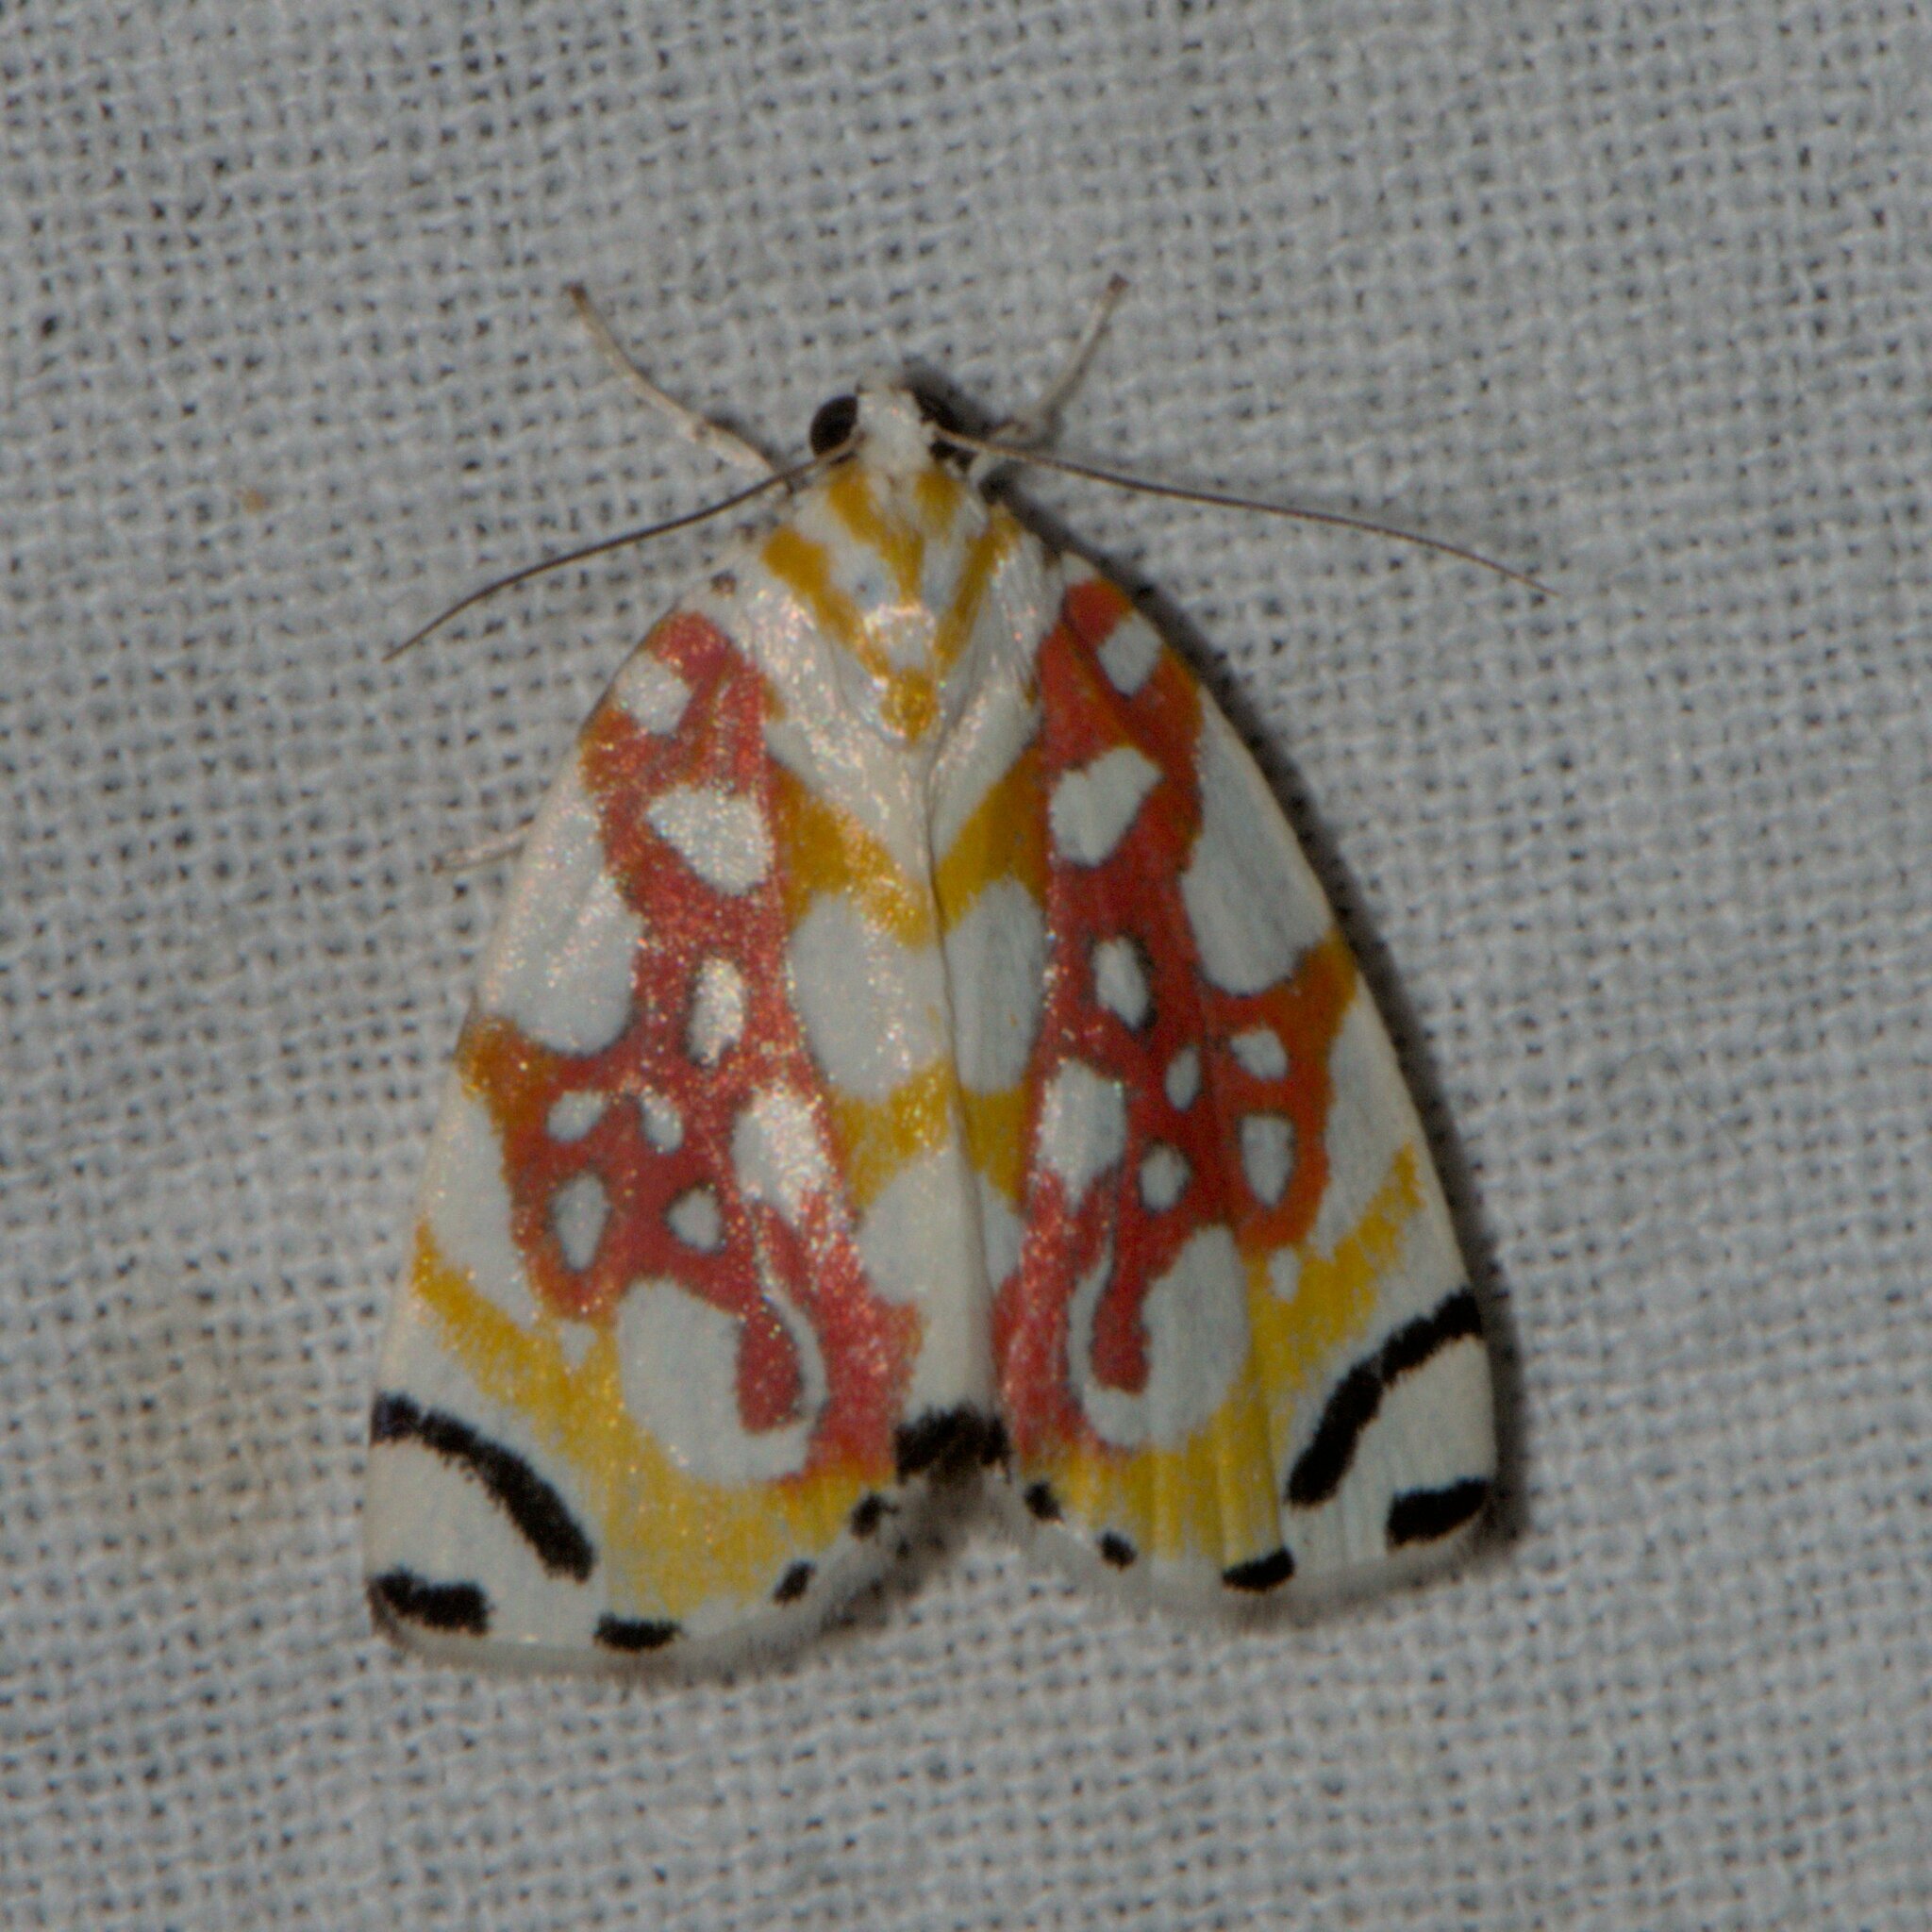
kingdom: Animalia
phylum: Arthropoda
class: Insecta
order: Lepidoptera
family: Nolidae
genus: Sinna
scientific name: Sinna dohertyi
